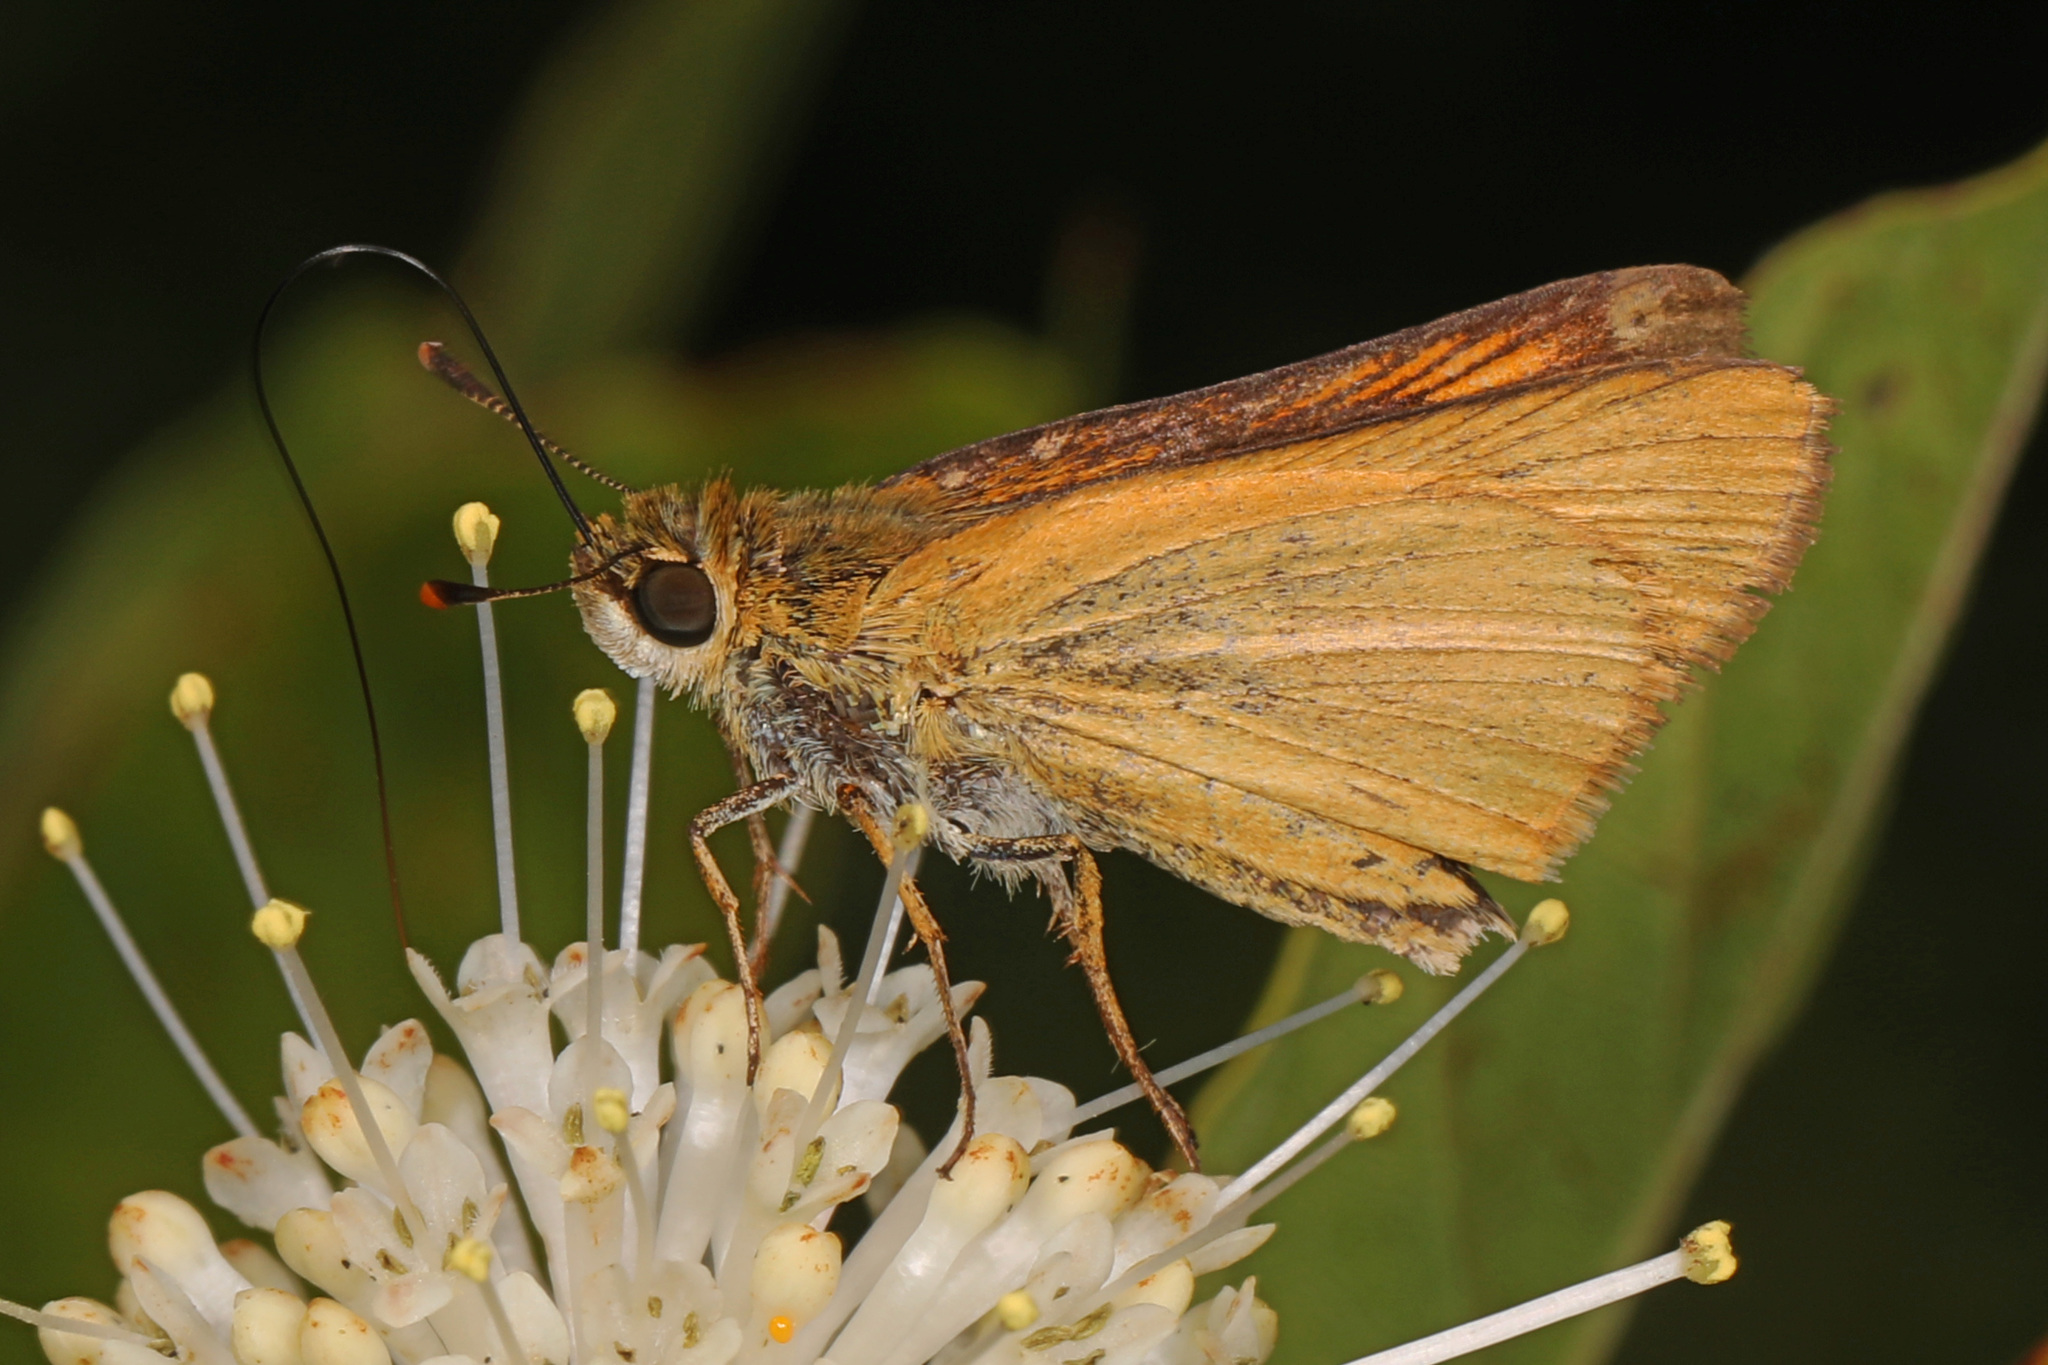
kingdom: Animalia
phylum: Arthropoda
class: Insecta
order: Lepidoptera
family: Hesperiidae
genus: Atrytone
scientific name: Atrytone delaware
